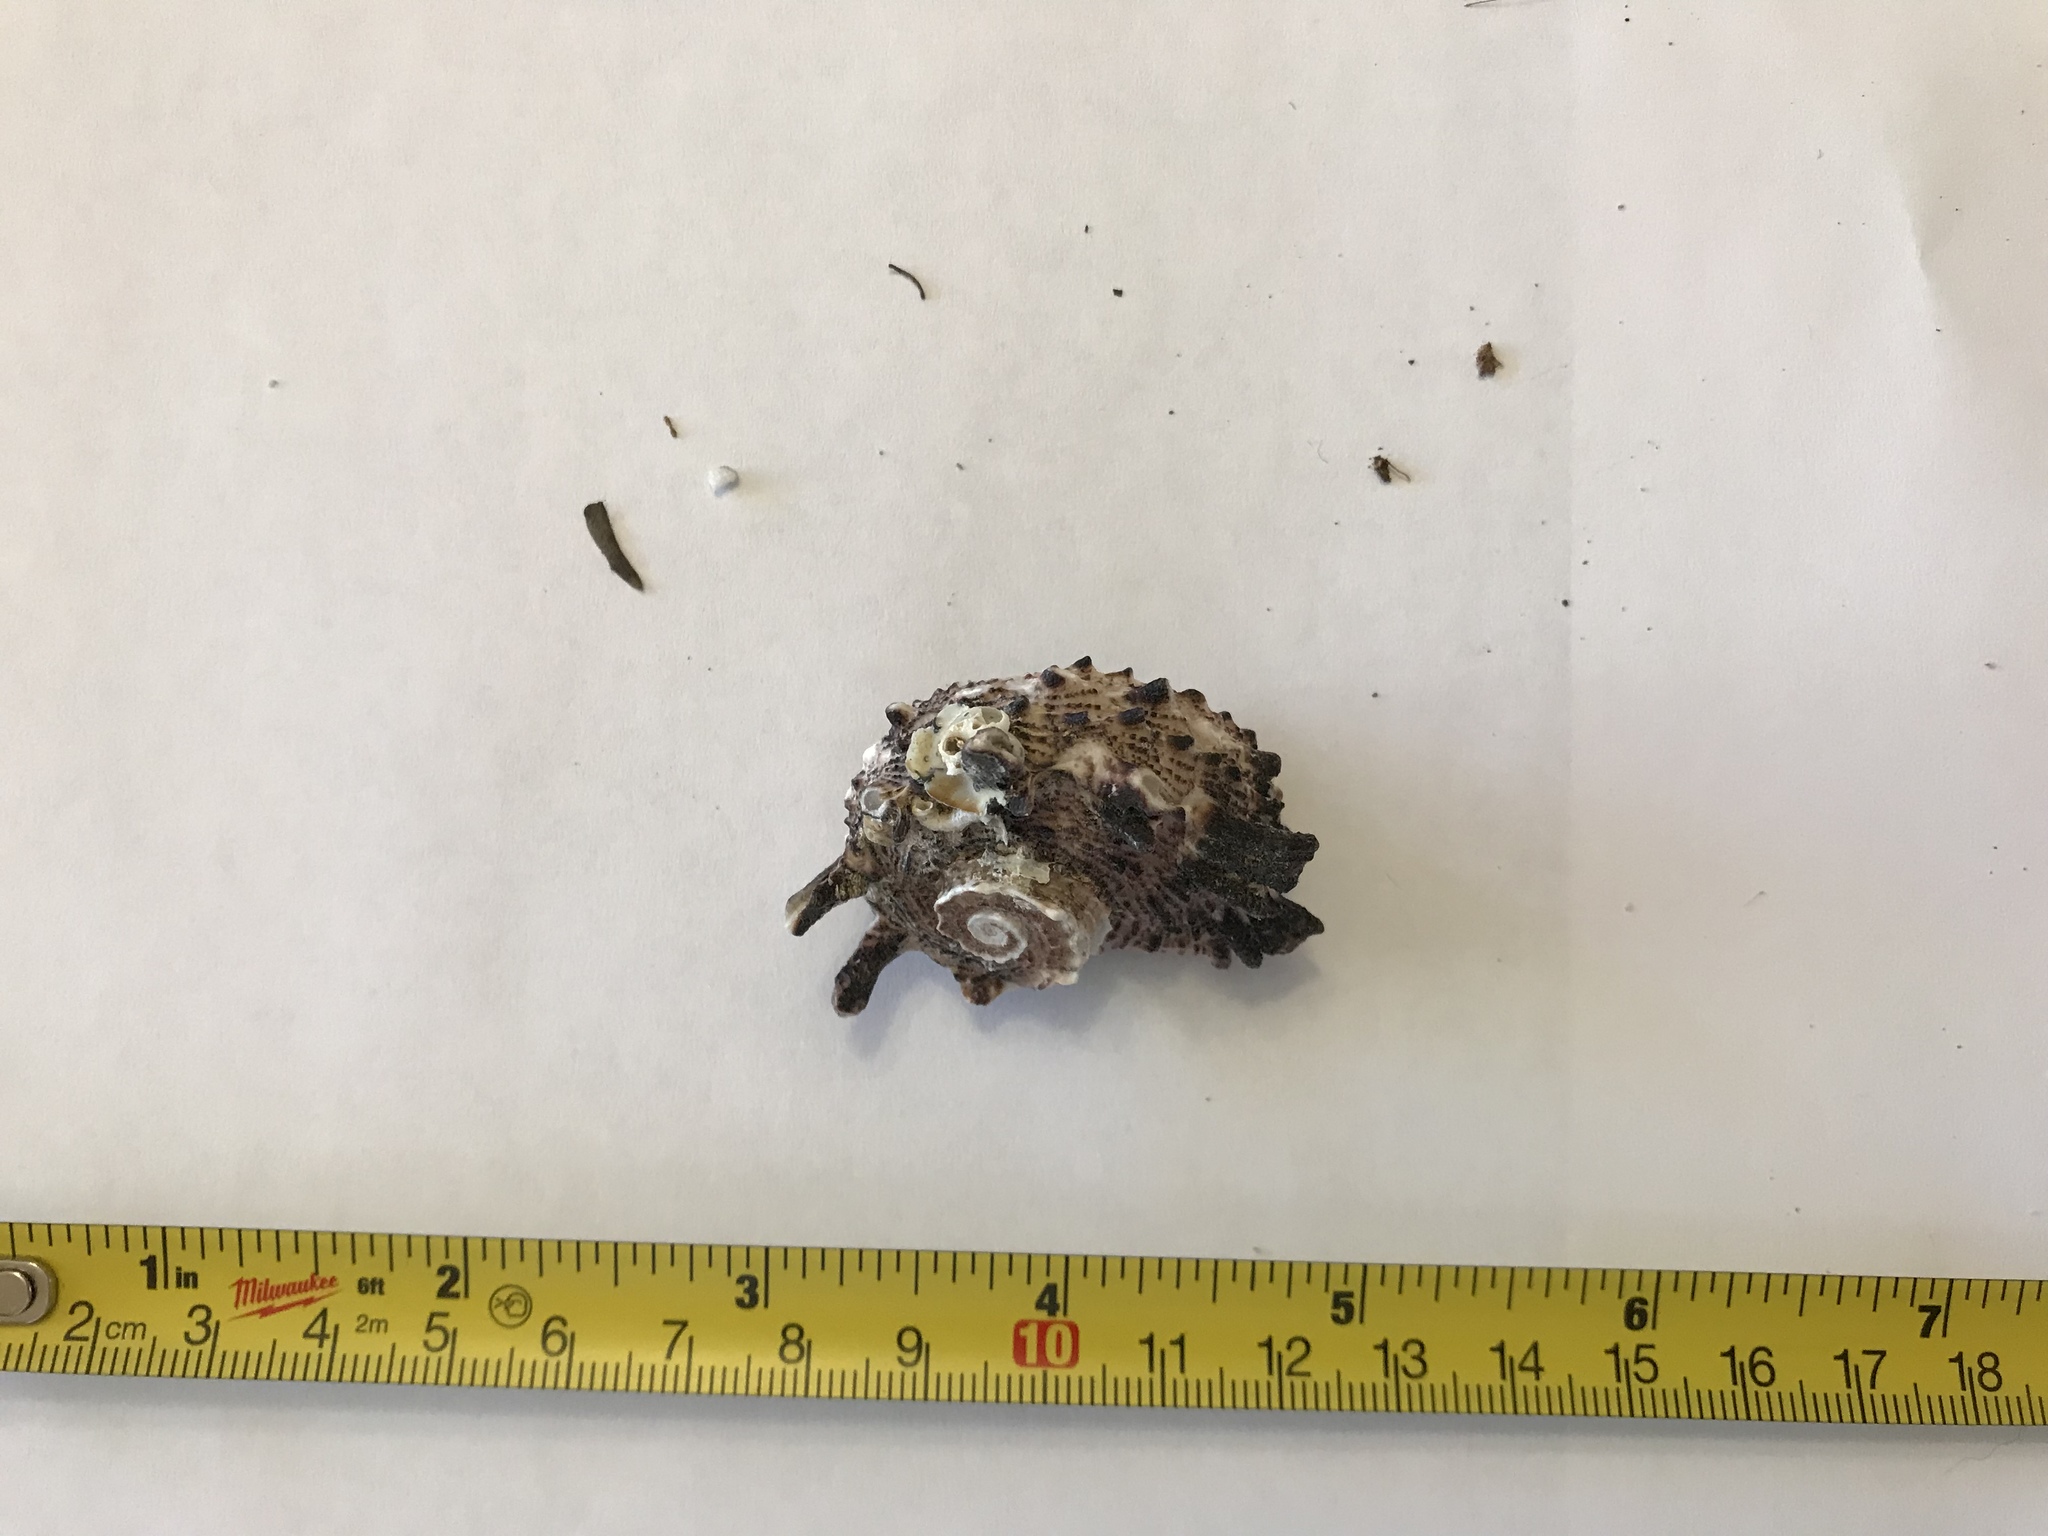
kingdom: Animalia
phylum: Mollusca
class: Gastropoda
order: Trochida
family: Angariidae
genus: Angaria
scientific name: Angaria delphinus
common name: Dolphin shell
